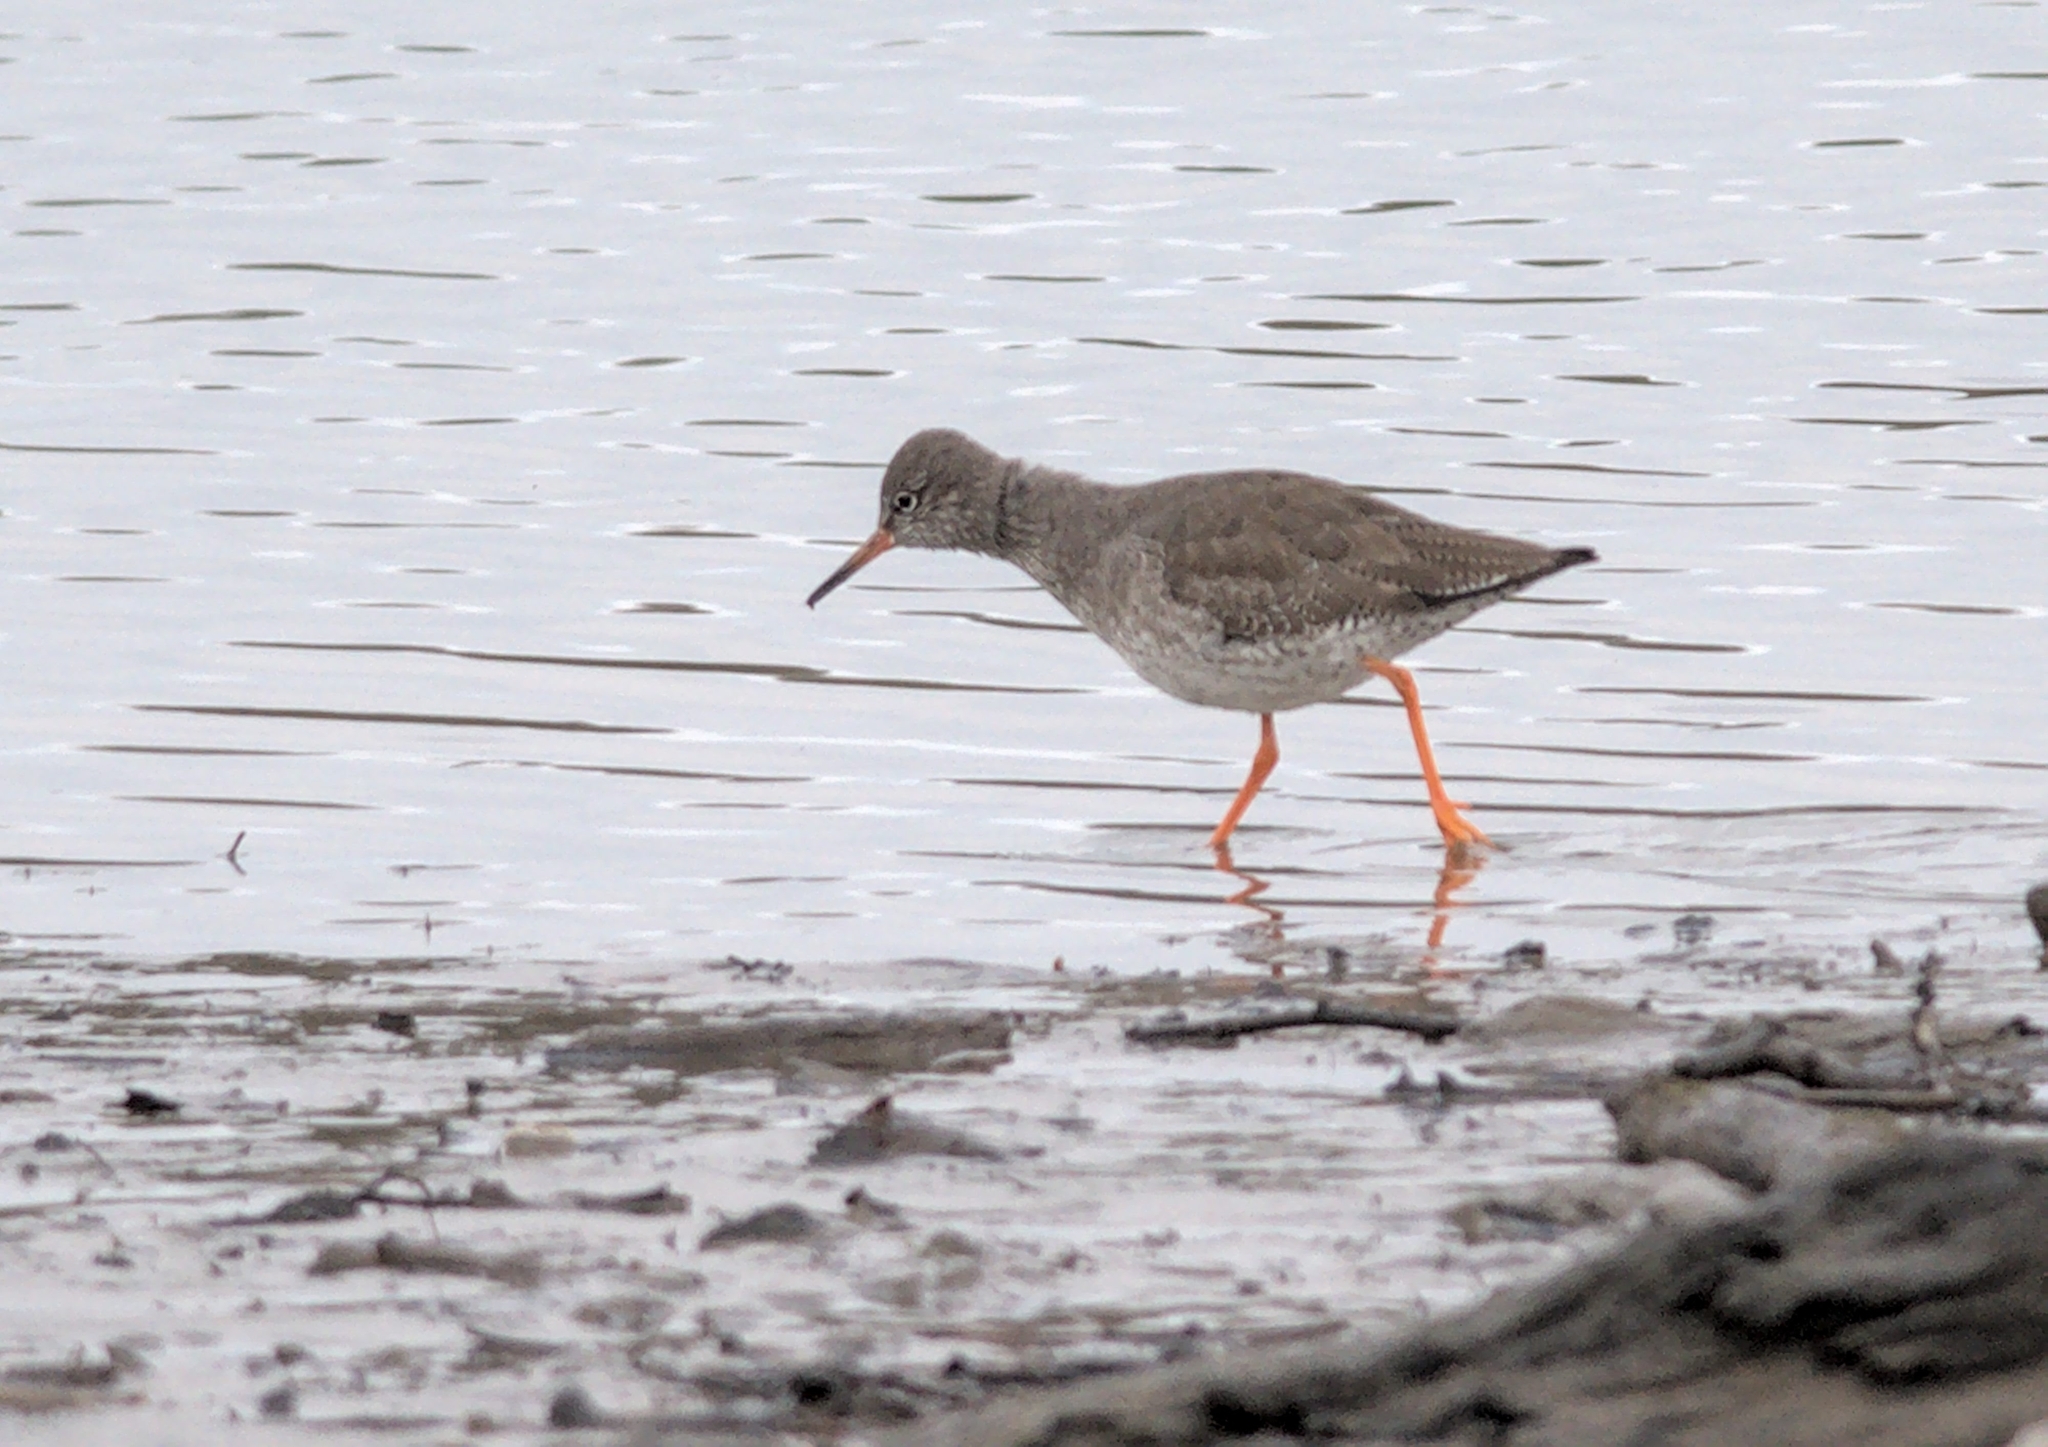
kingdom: Animalia
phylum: Chordata
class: Aves
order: Charadriiformes
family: Scolopacidae
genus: Tringa
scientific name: Tringa totanus
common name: Common redshank
